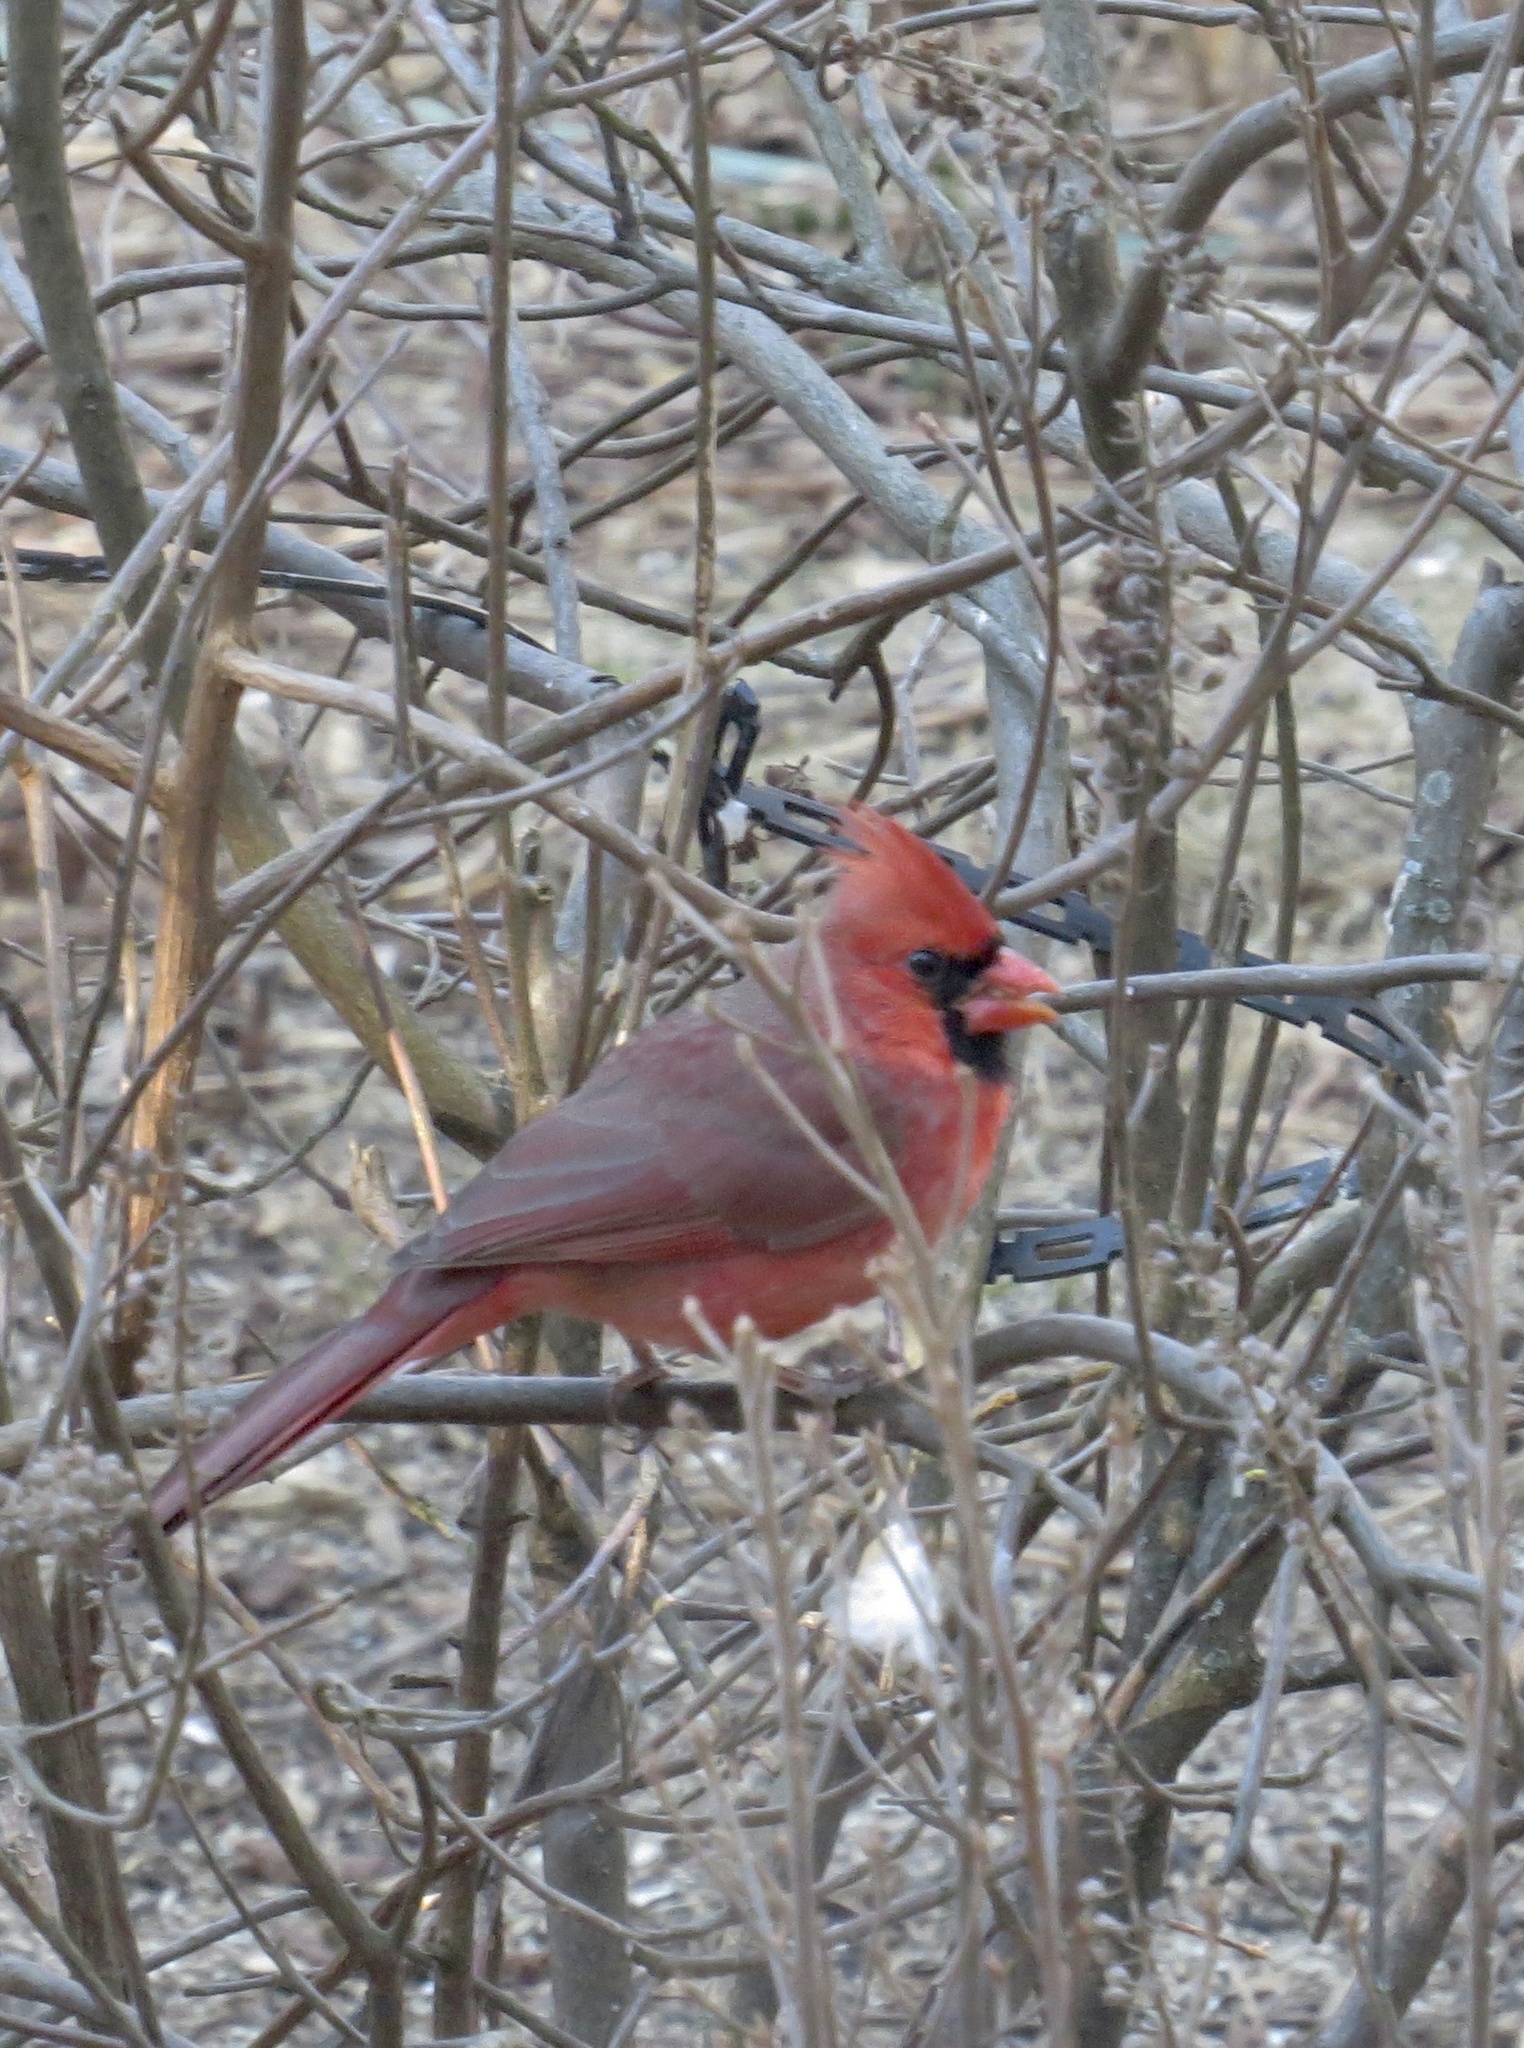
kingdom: Animalia
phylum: Chordata
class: Aves
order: Passeriformes
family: Cardinalidae
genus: Cardinalis
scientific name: Cardinalis cardinalis
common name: Northern cardinal
